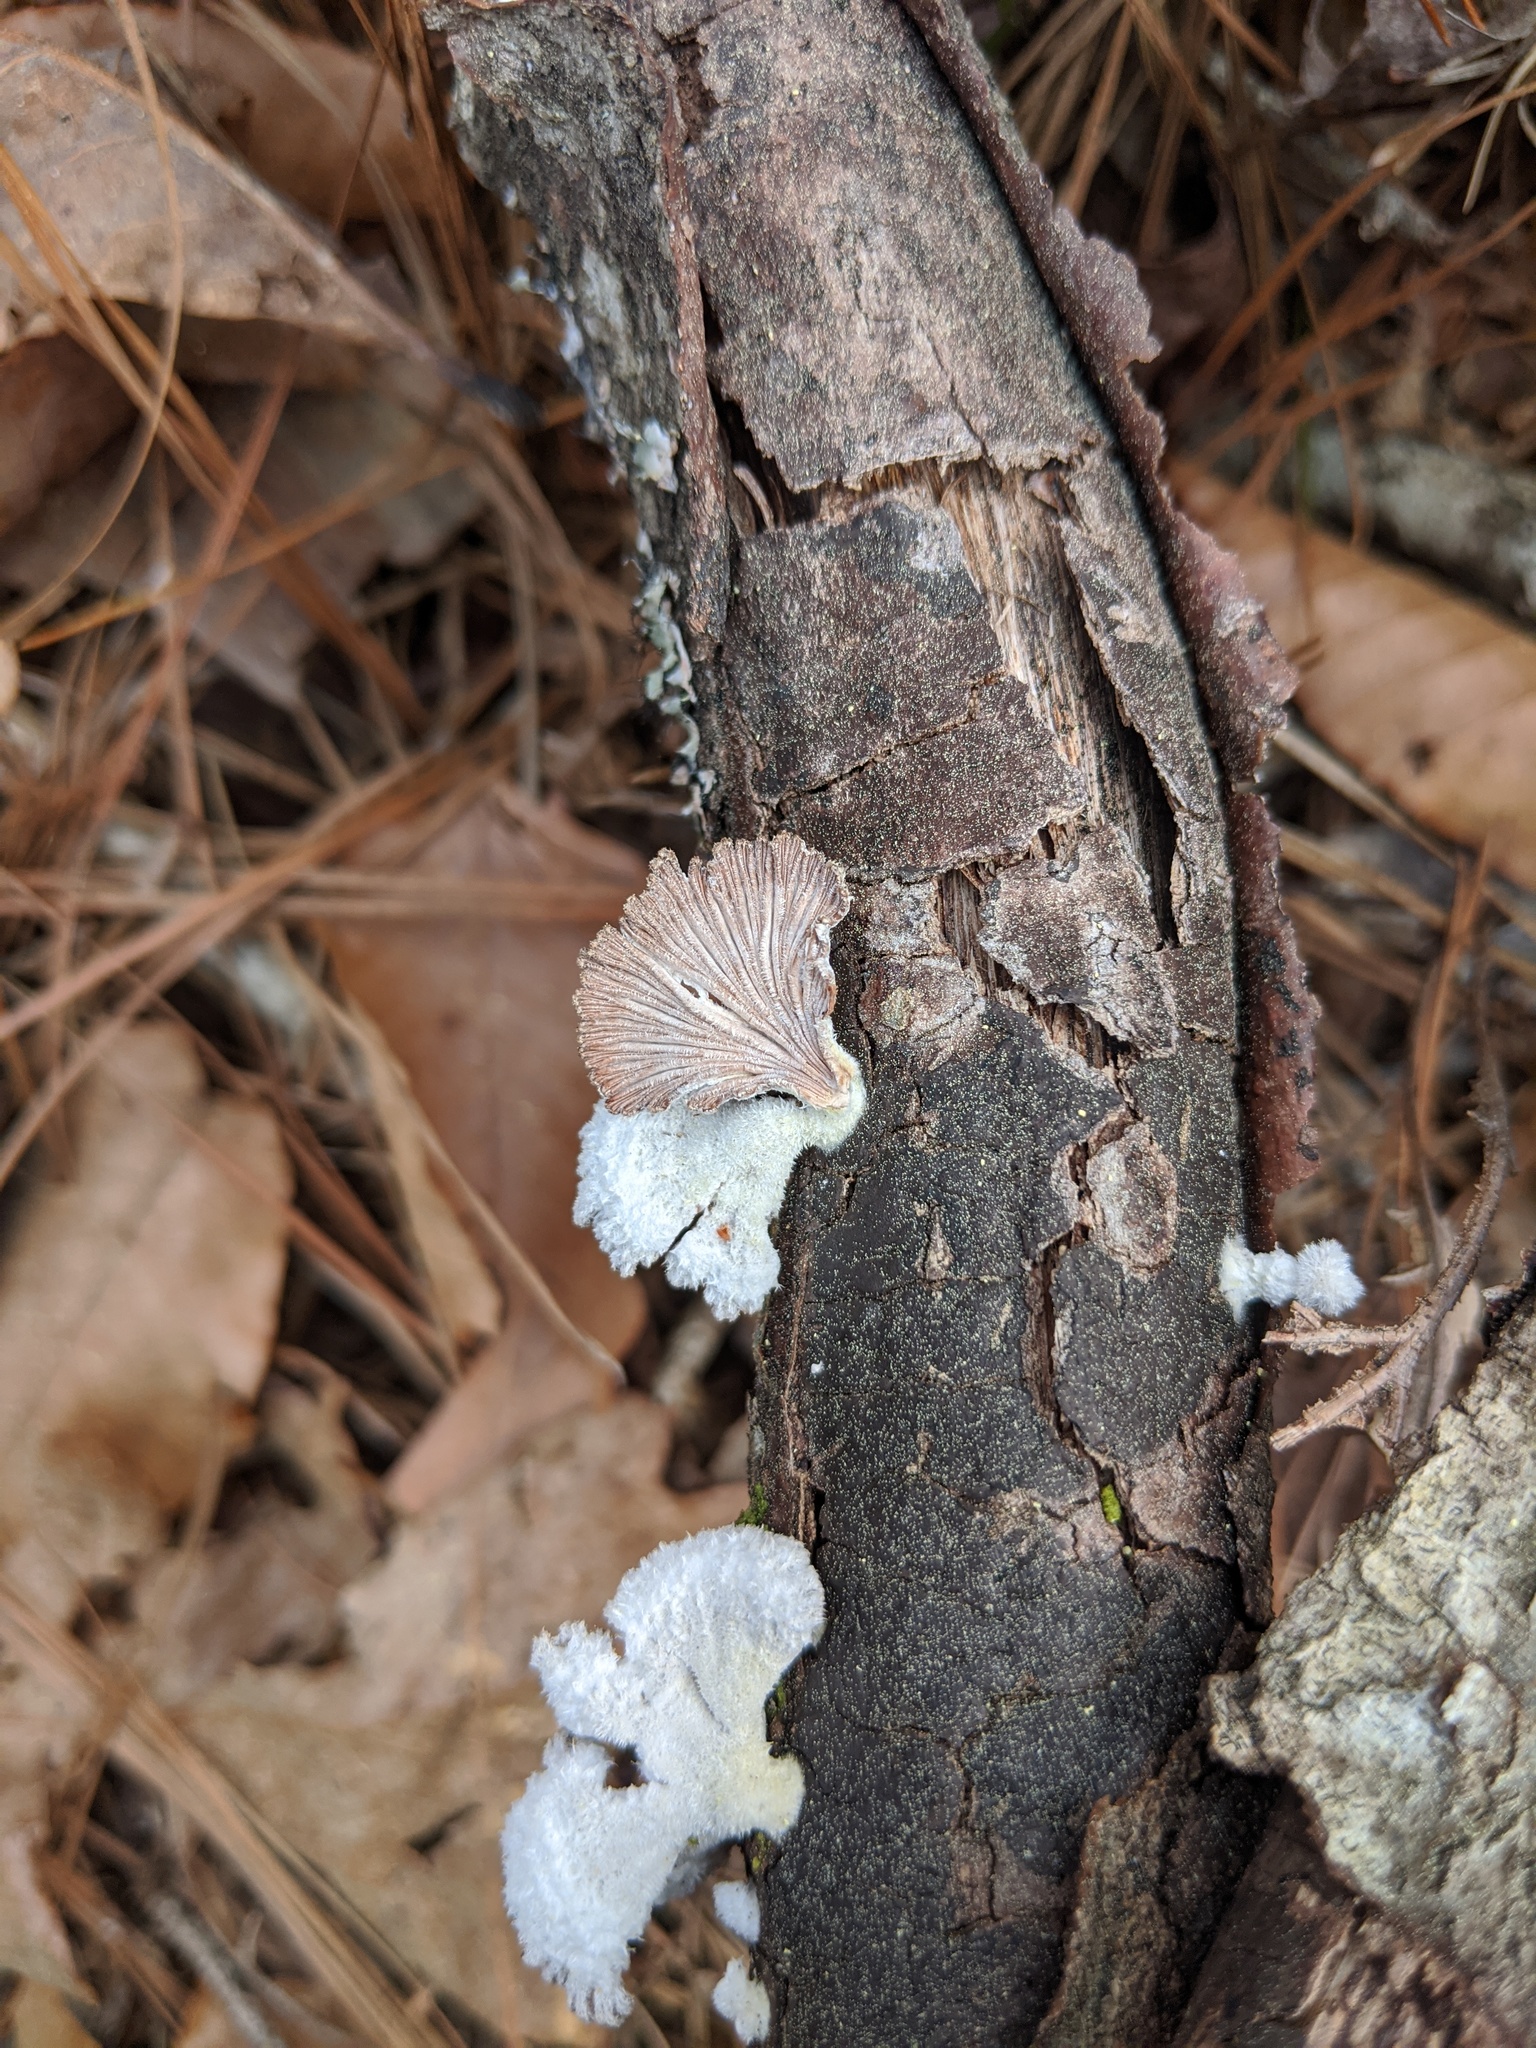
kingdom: Fungi
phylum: Basidiomycota
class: Agaricomycetes
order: Agaricales
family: Schizophyllaceae
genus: Schizophyllum
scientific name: Schizophyllum commune
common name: Common porecrust
